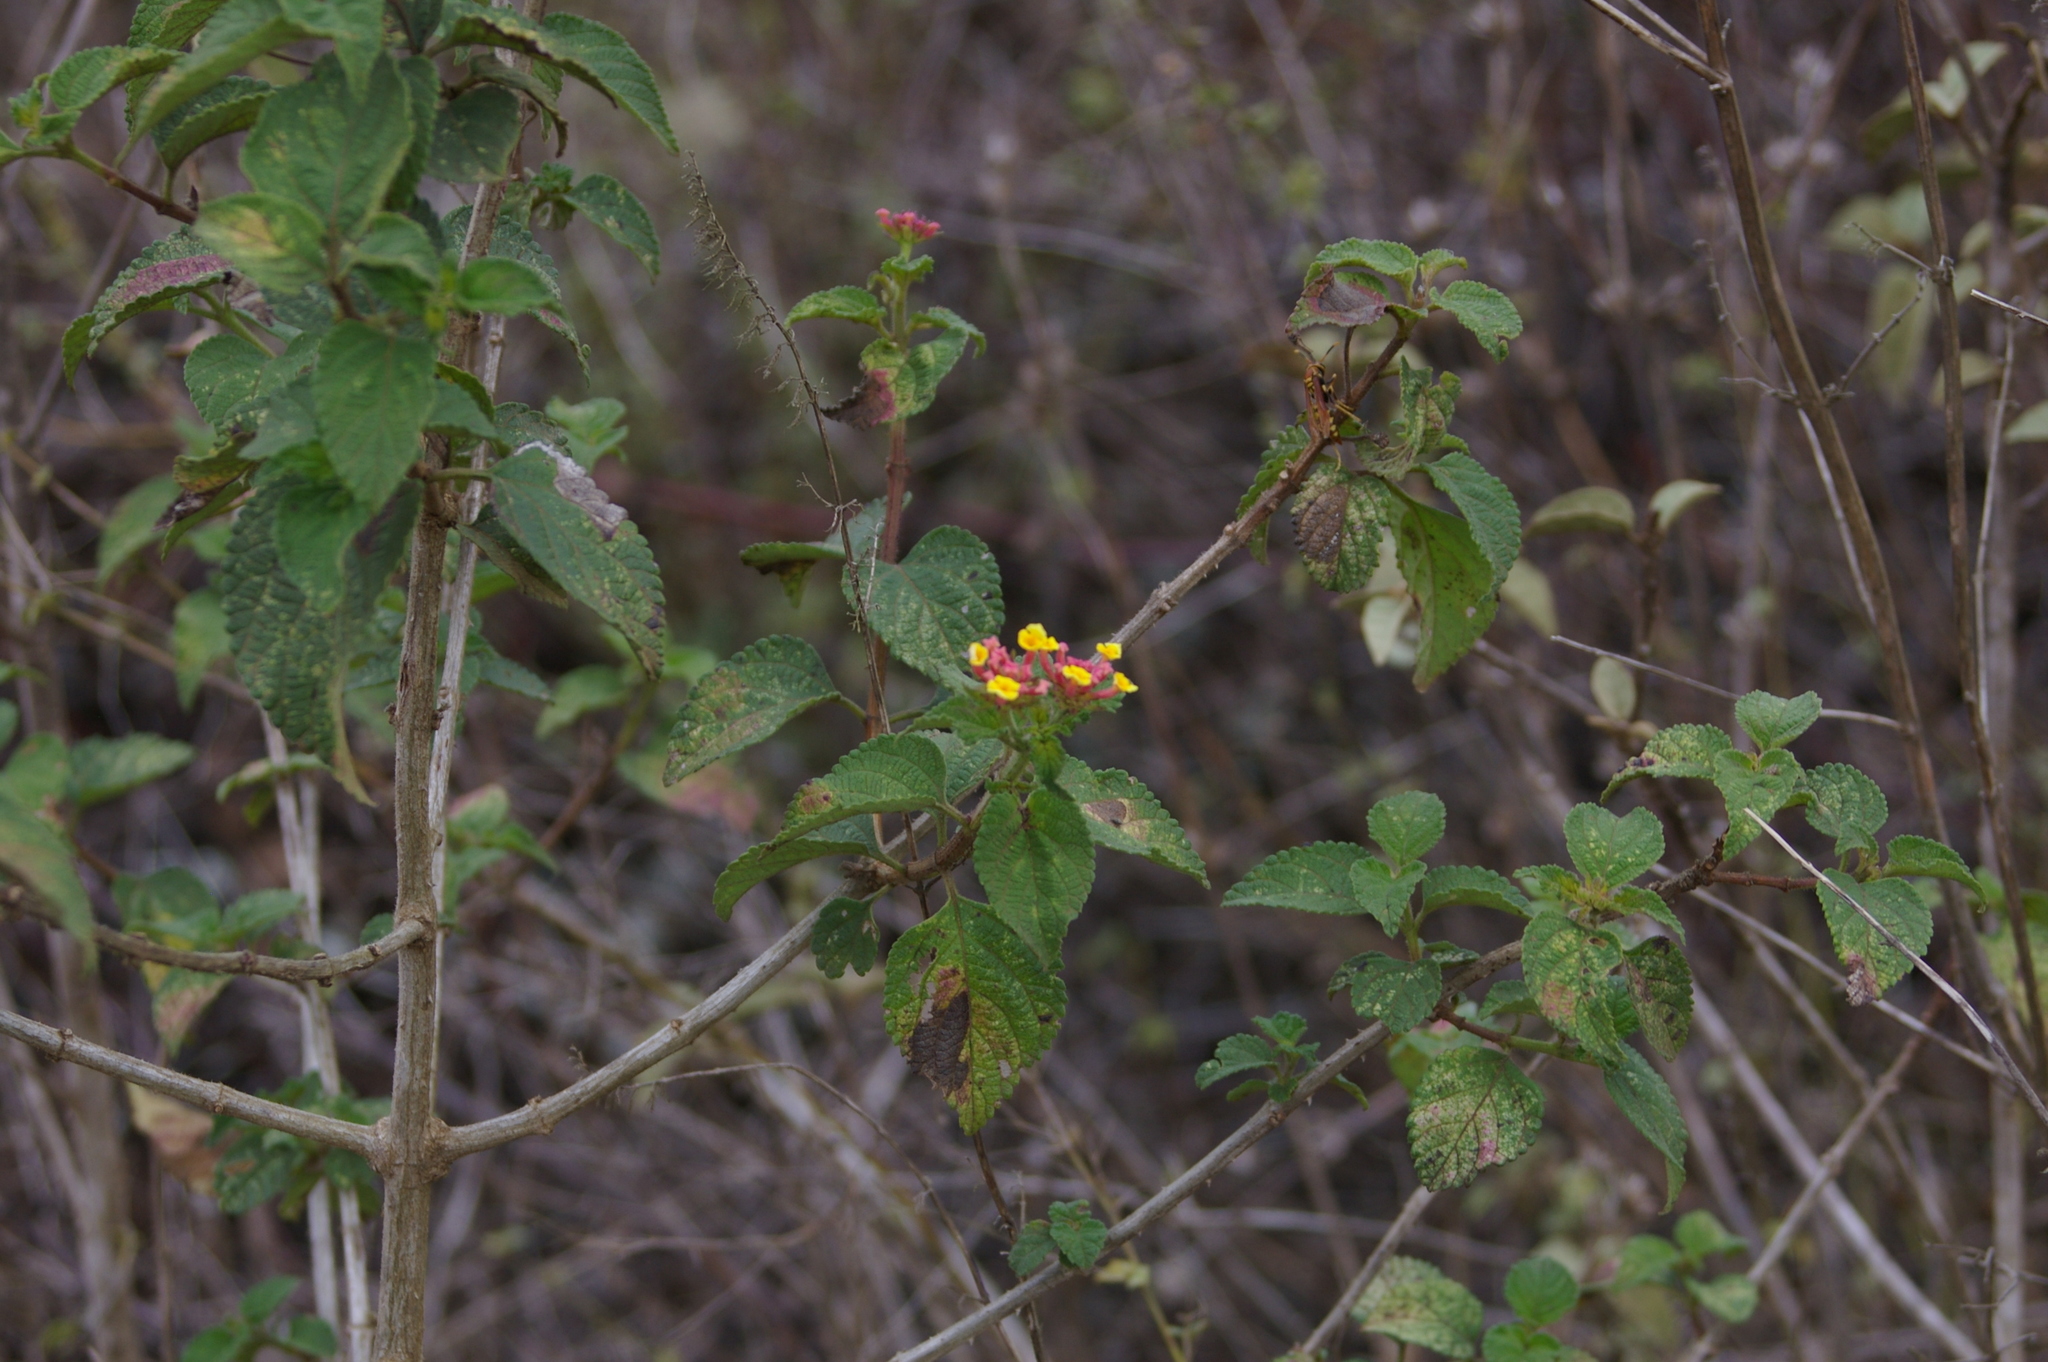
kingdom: Plantae
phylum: Tracheophyta
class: Magnoliopsida
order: Lamiales
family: Verbenaceae
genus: Lantana
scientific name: Lantana camara
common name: Lantana
